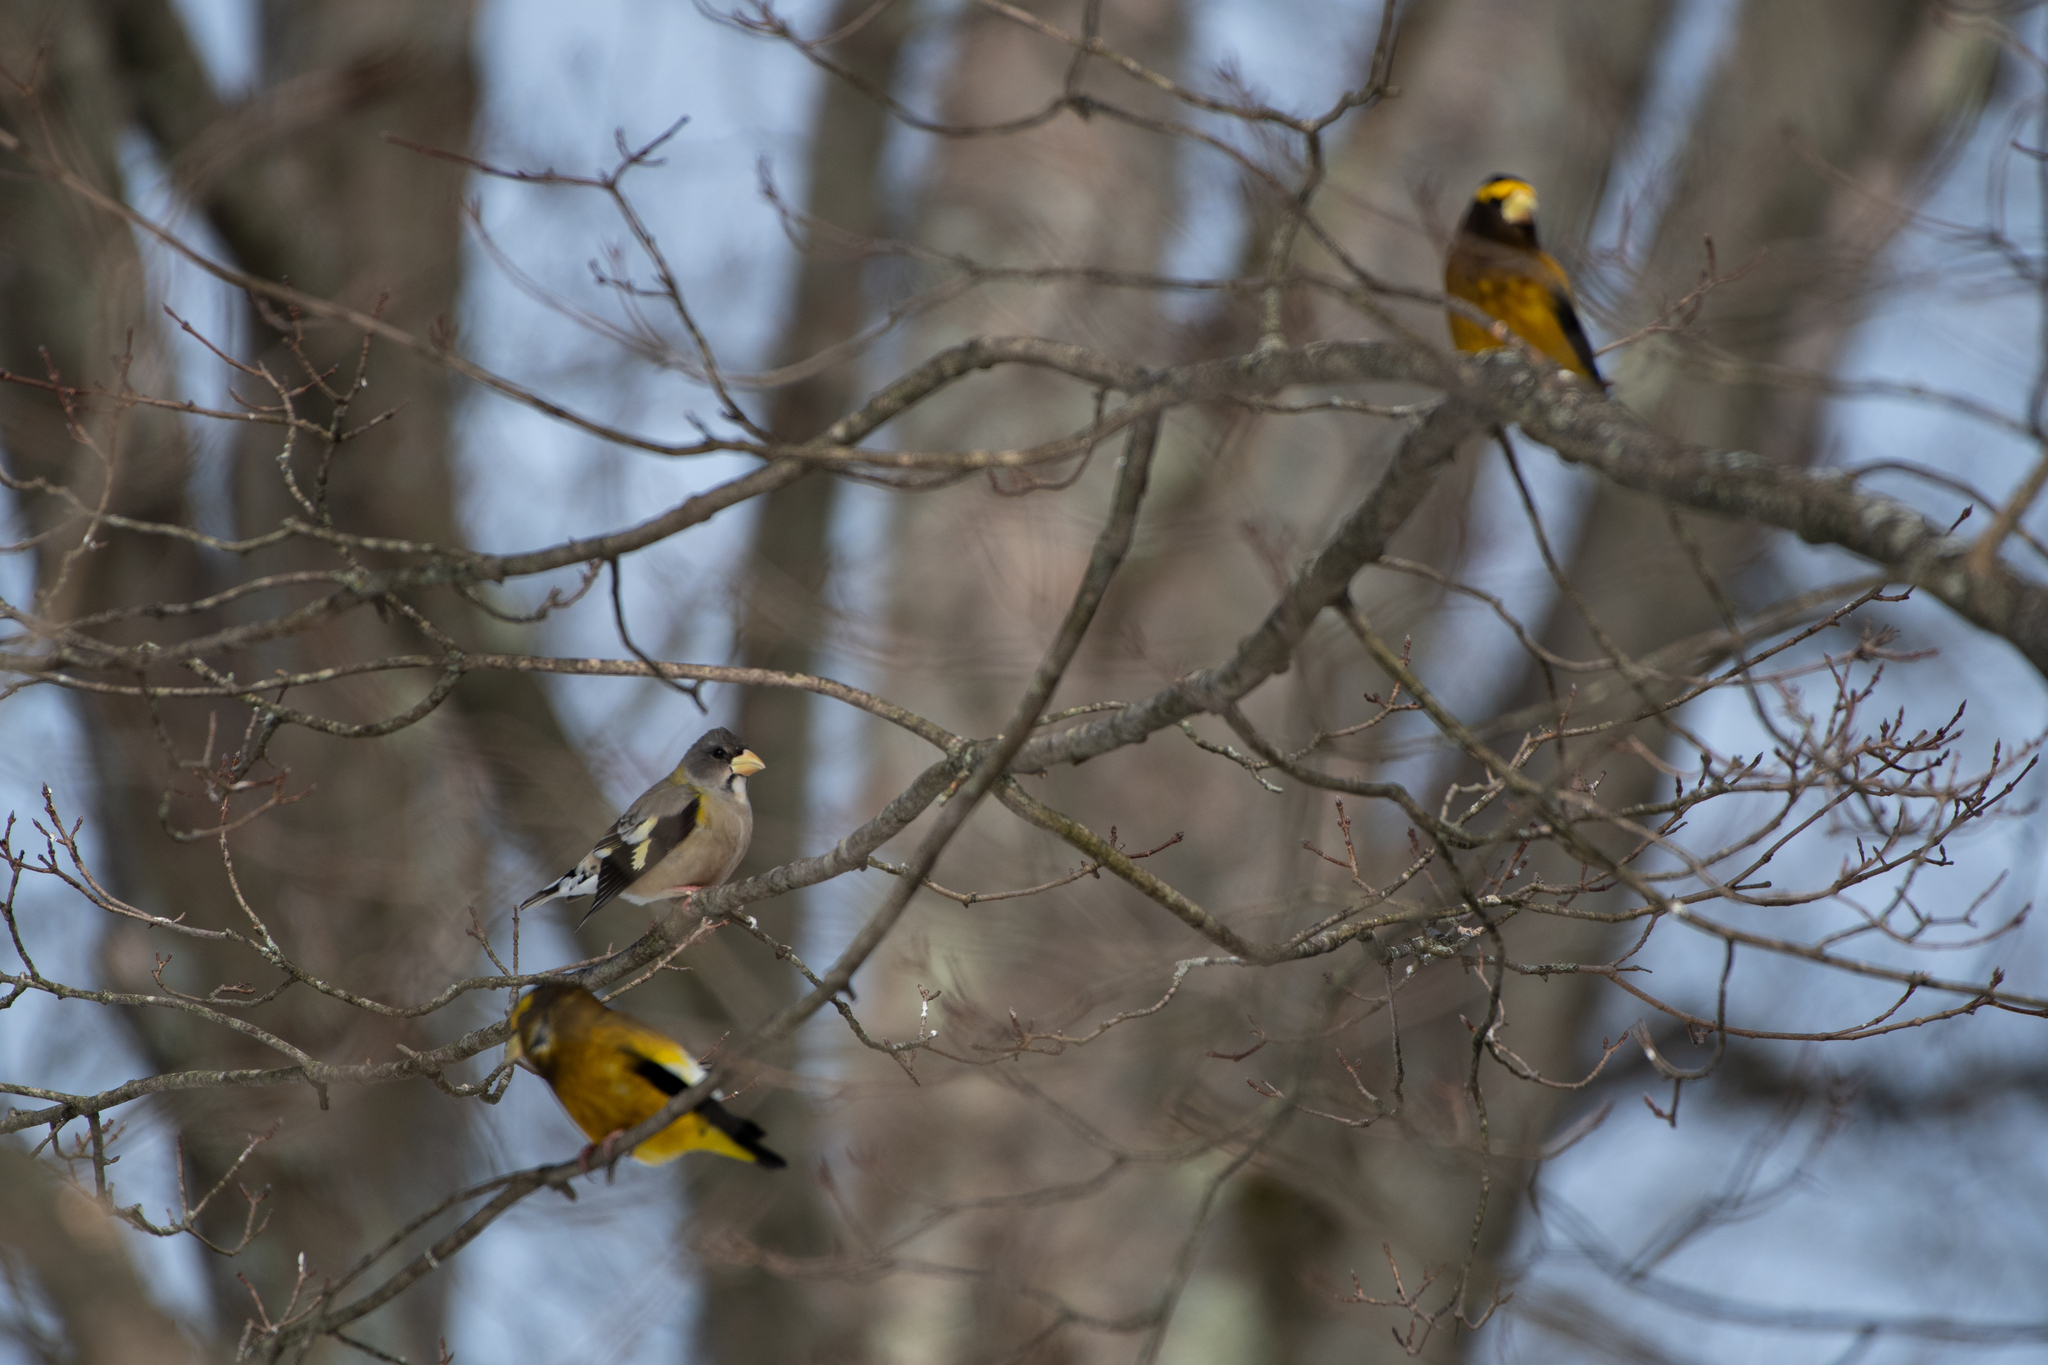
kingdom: Animalia
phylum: Chordata
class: Aves
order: Passeriformes
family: Fringillidae
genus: Hesperiphona
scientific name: Hesperiphona vespertina
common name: Evening grosbeak
